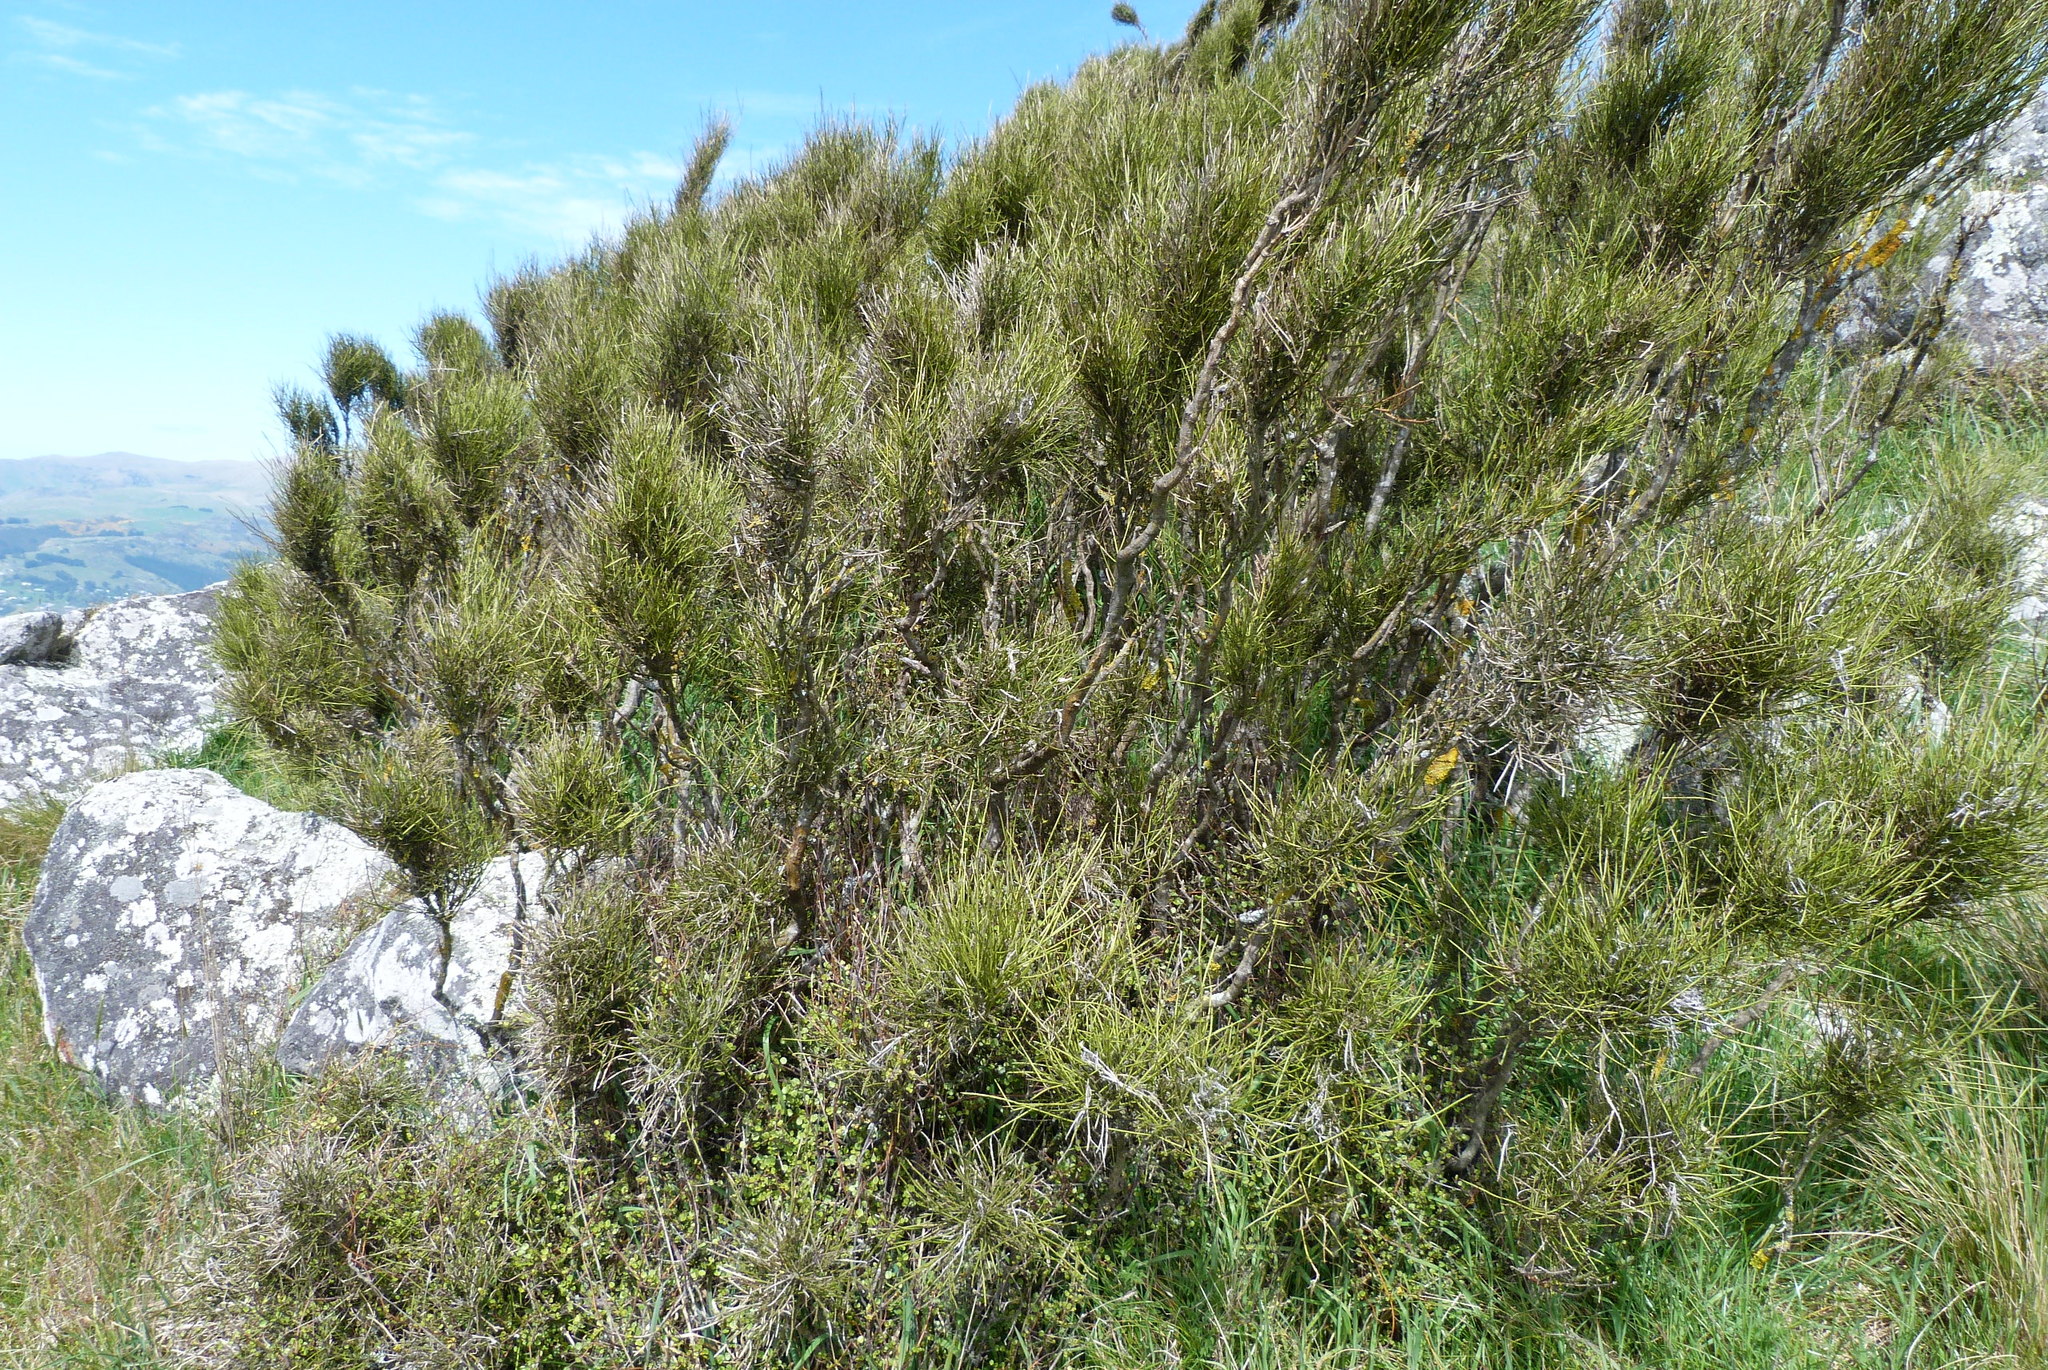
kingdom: Plantae
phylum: Tracheophyta
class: Magnoliopsida
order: Fabales
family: Fabaceae
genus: Carmichaelia
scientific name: Carmichaelia australis
